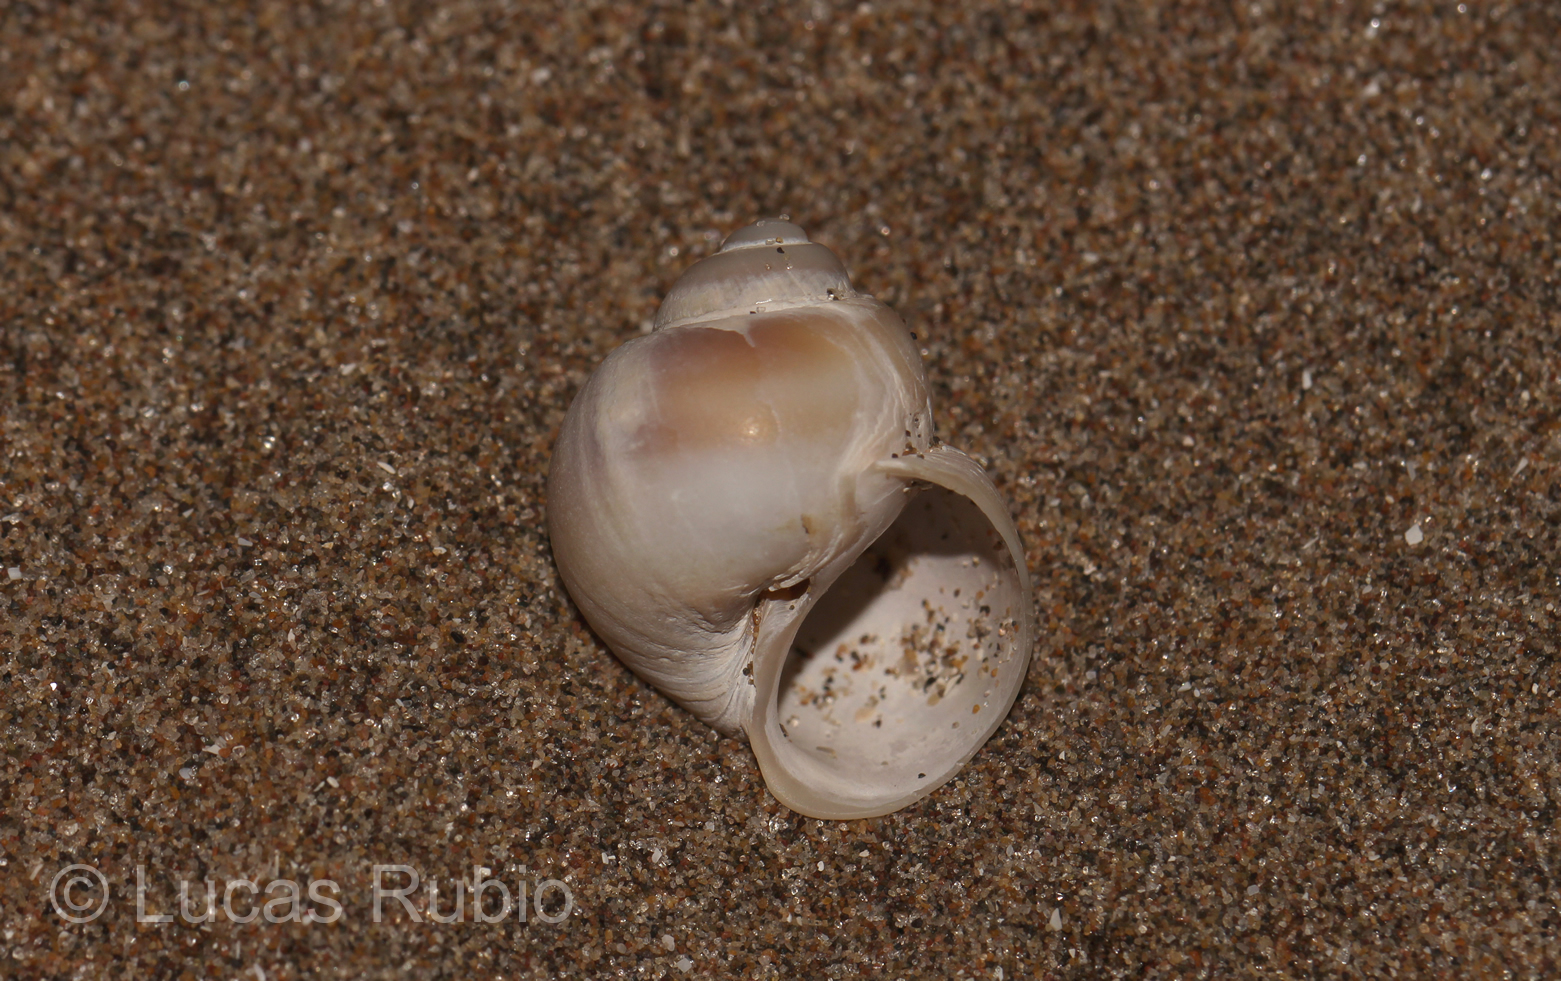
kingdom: Animalia
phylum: Mollusca
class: Gastropoda
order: Littorinimorpha
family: Naticidae
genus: Notocochlis
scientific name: Notocochlis isabelleana
